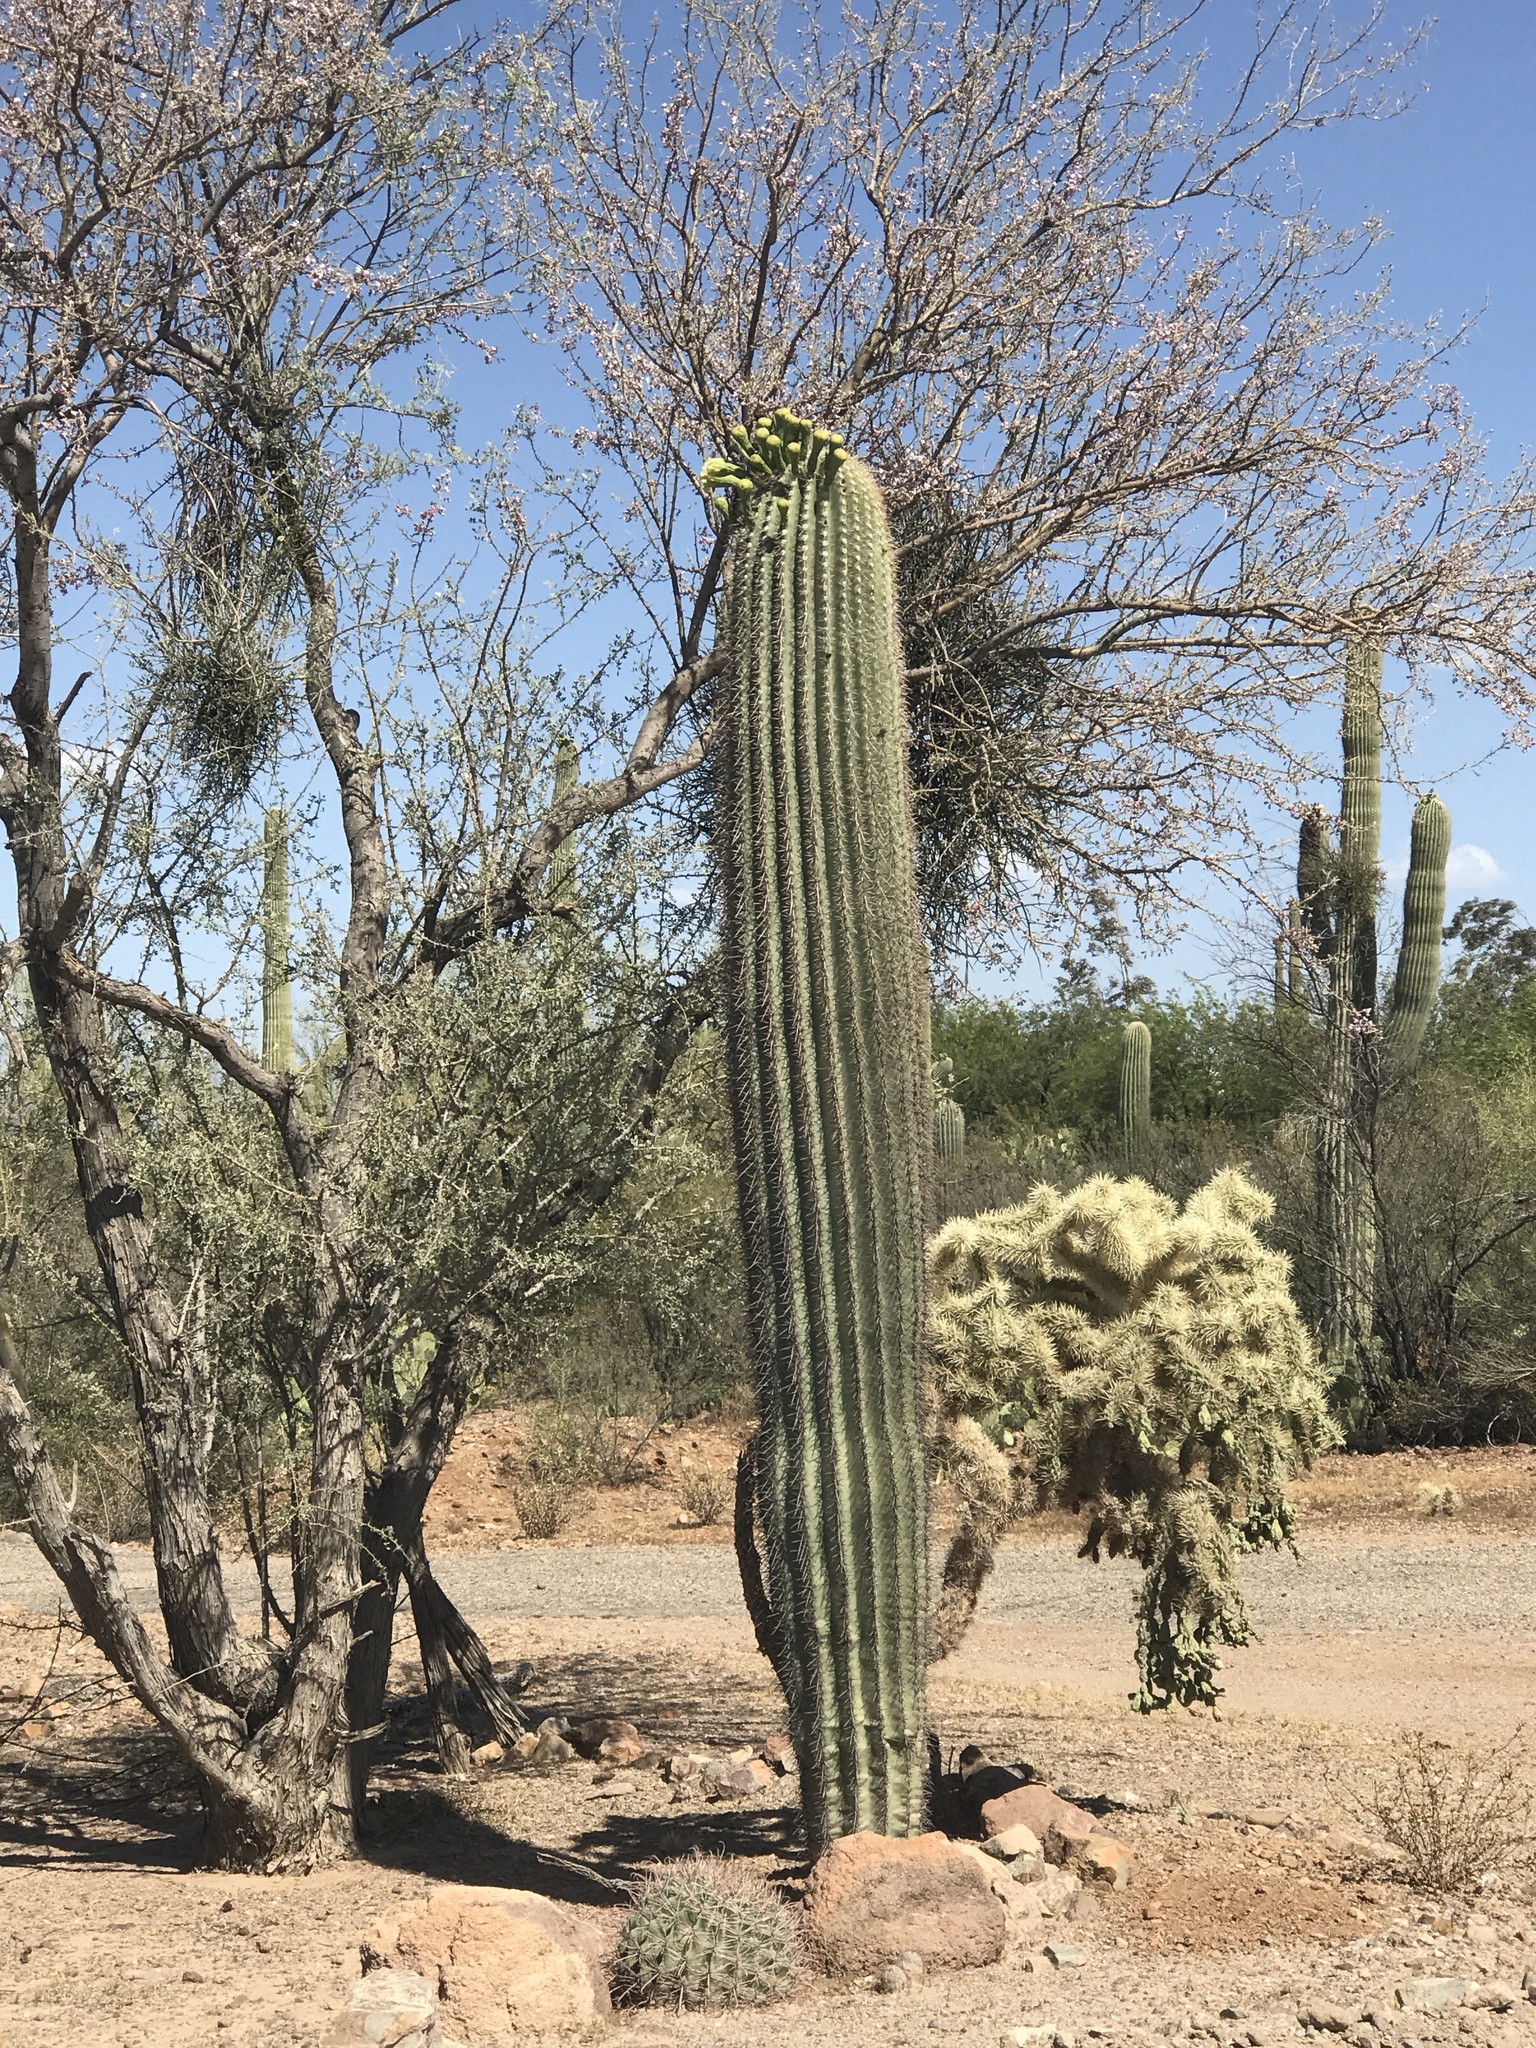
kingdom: Plantae
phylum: Tracheophyta
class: Magnoliopsida
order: Caryophyllales
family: Cactaceae
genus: Carnegiea
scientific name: Carnegiea gigantea
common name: Saguaro
